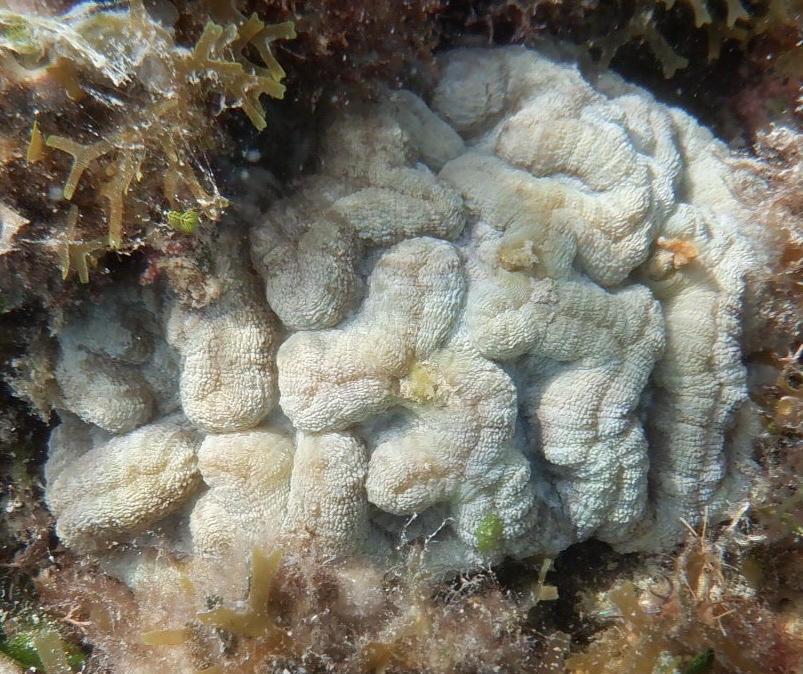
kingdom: Animalia
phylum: Cnidaria
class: Anthozoa
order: Scleractinia
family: Faviidae
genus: Isophyllia
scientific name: Isophyllia sinuosa
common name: Sinuous cactus coral
